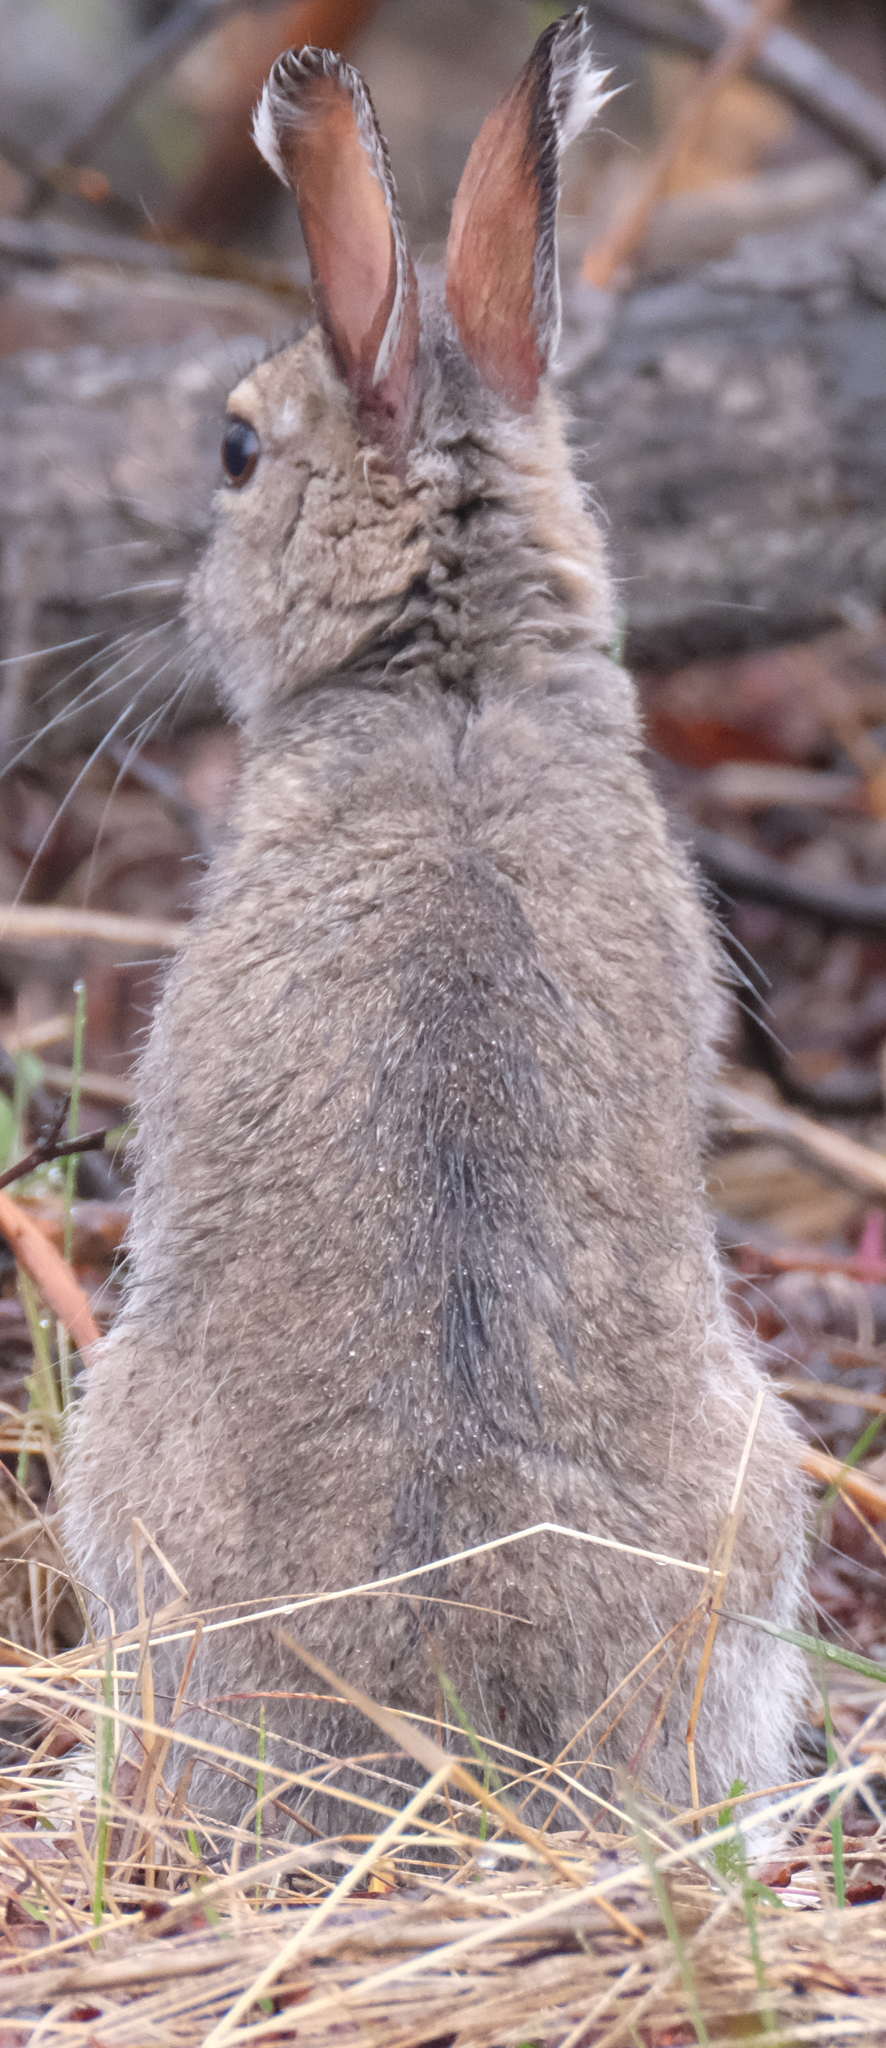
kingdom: Animalia
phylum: Chordata
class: Mammalia
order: Lagomorpha
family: Leporidae
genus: Lepus
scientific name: Lepus americanus
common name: Snowshoe hare
